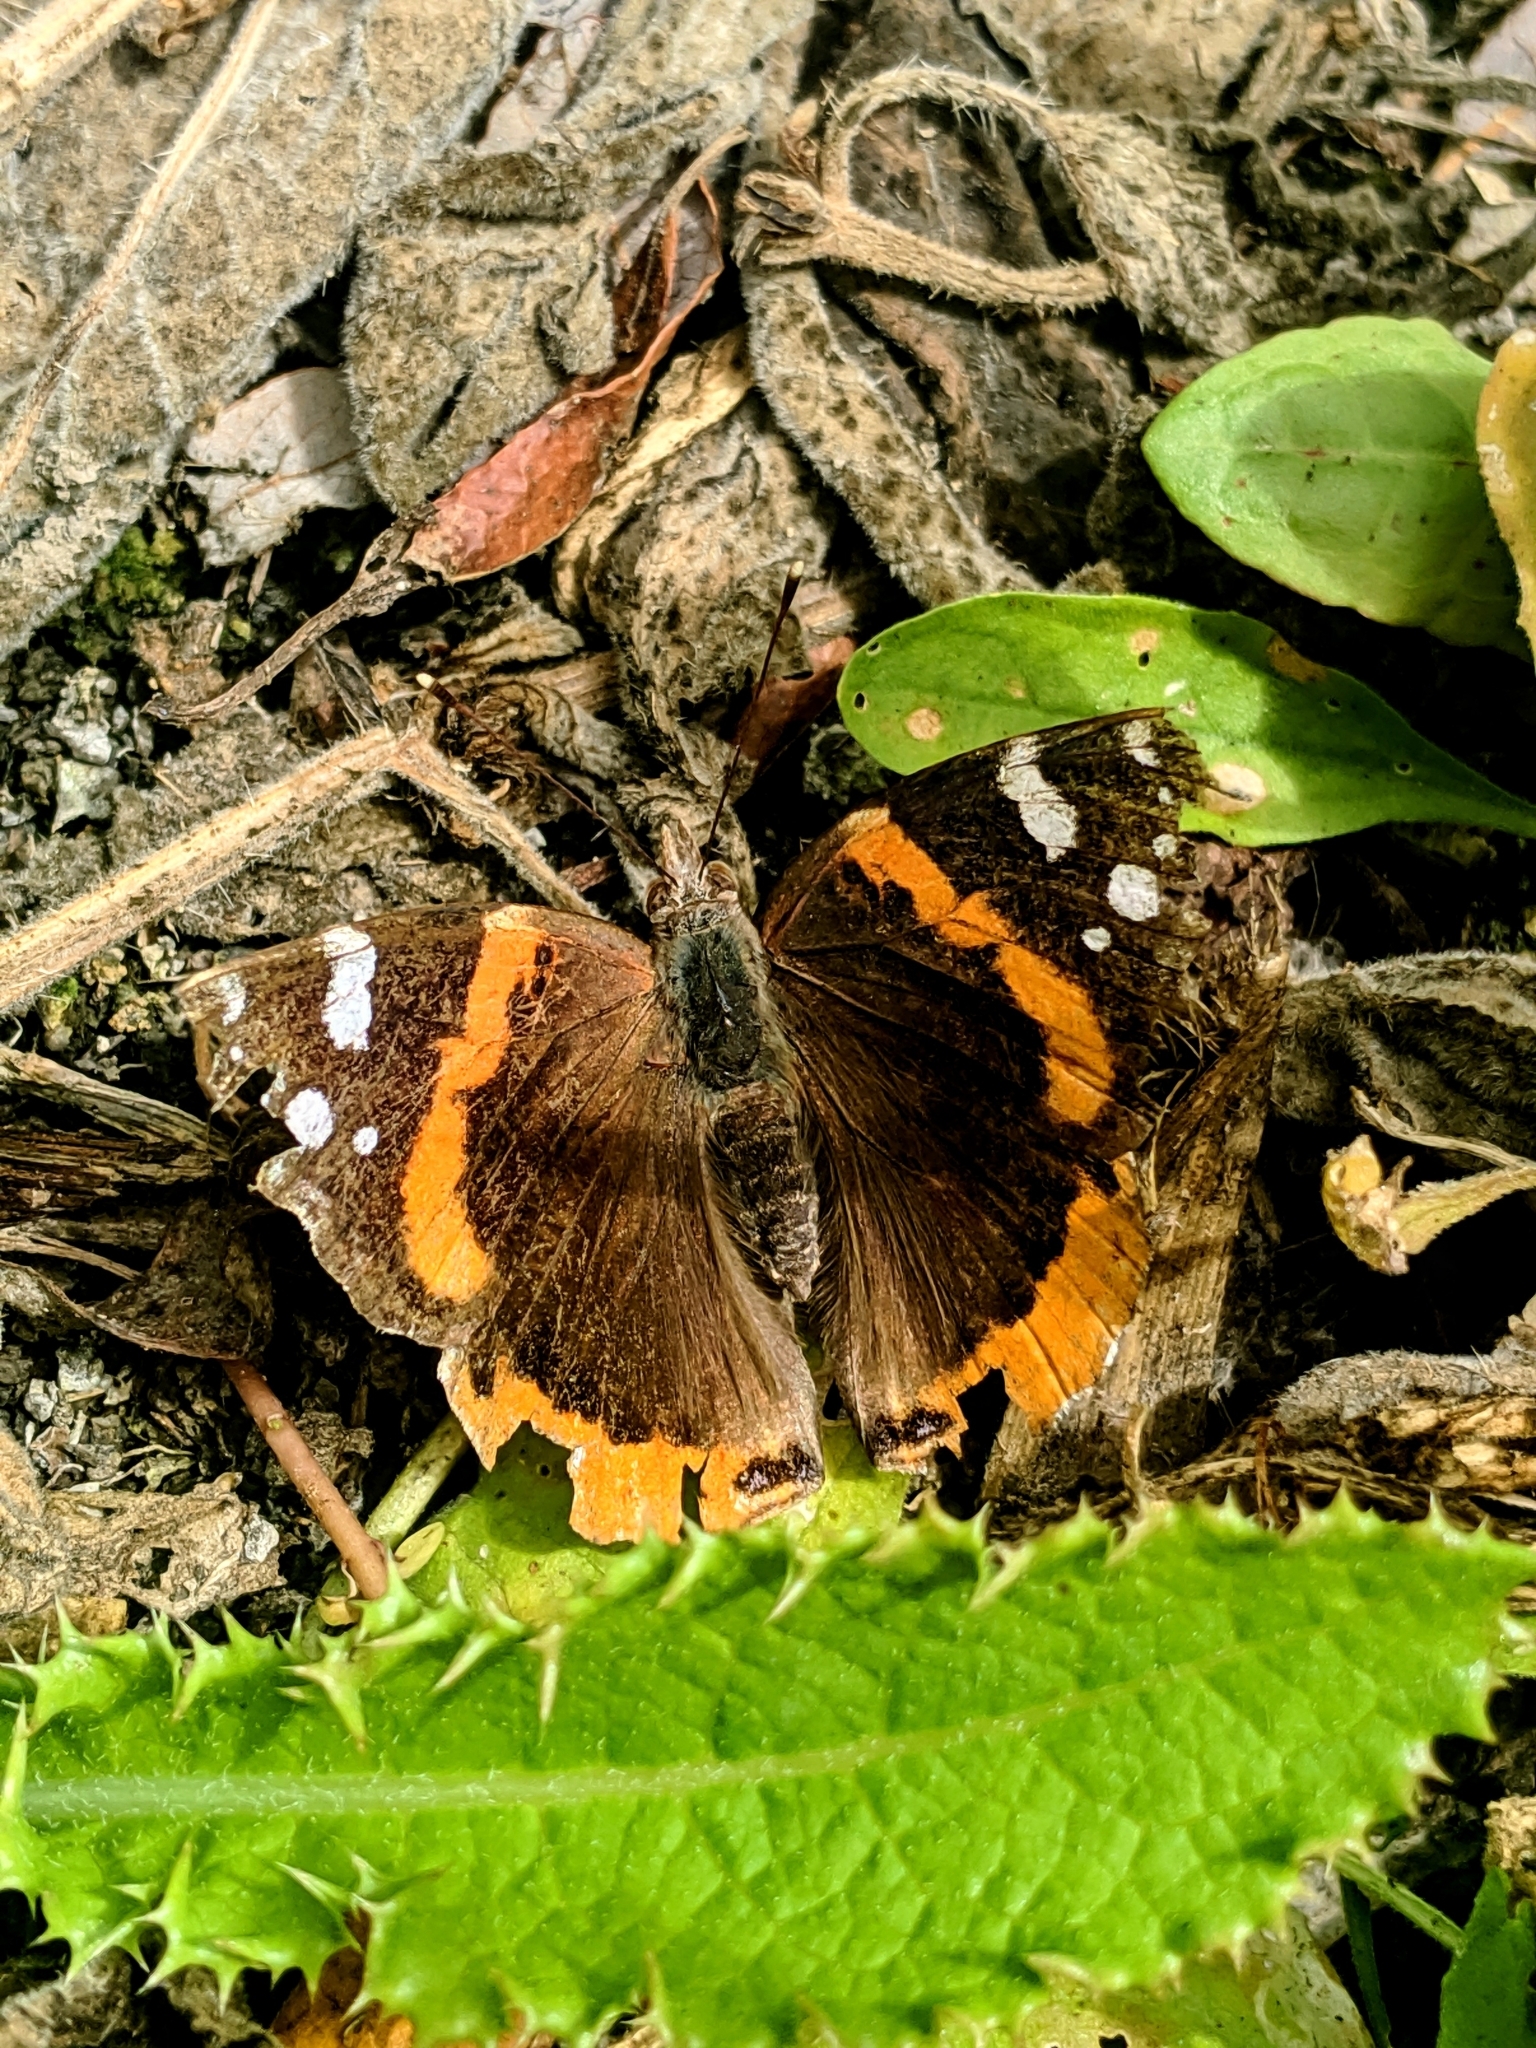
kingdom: Animalia
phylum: Arthropoda
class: Insecta
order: Lepidoptera
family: Nymphalidae
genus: Vanessa
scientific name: Vanessa atalanta
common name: Red admiral
